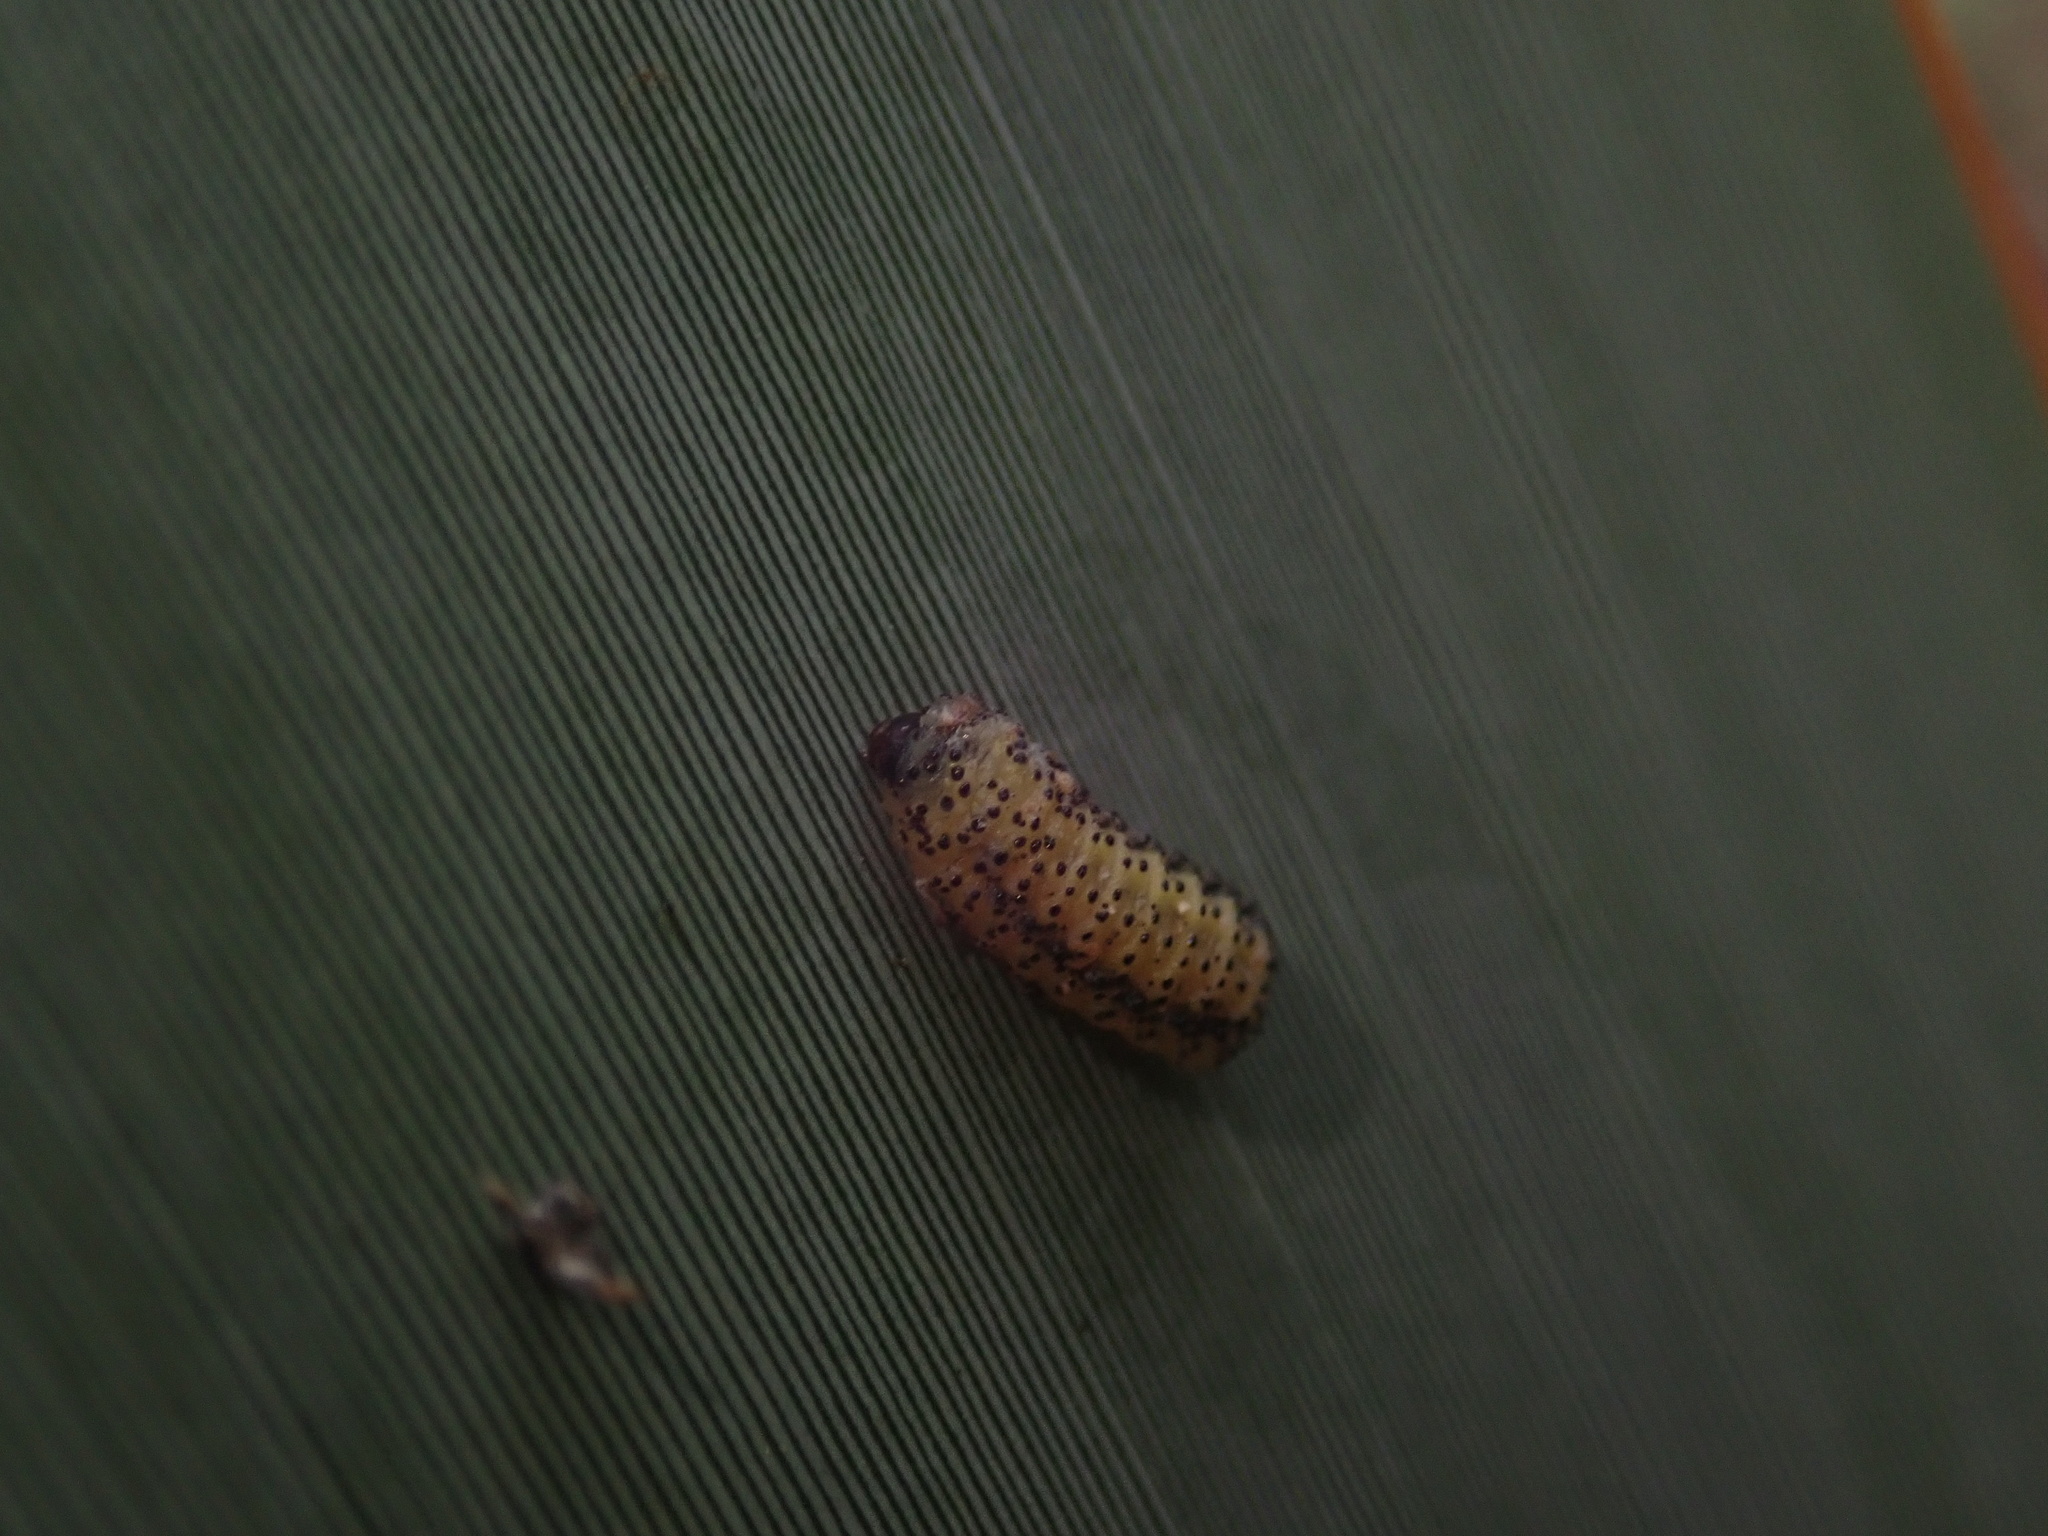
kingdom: Animalia
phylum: Arthropoda
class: Insecta
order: Coleoptera
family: Curculionidae
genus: Gonipterus
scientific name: Gonipterus platensis
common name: Eucalyptus snout beetle
